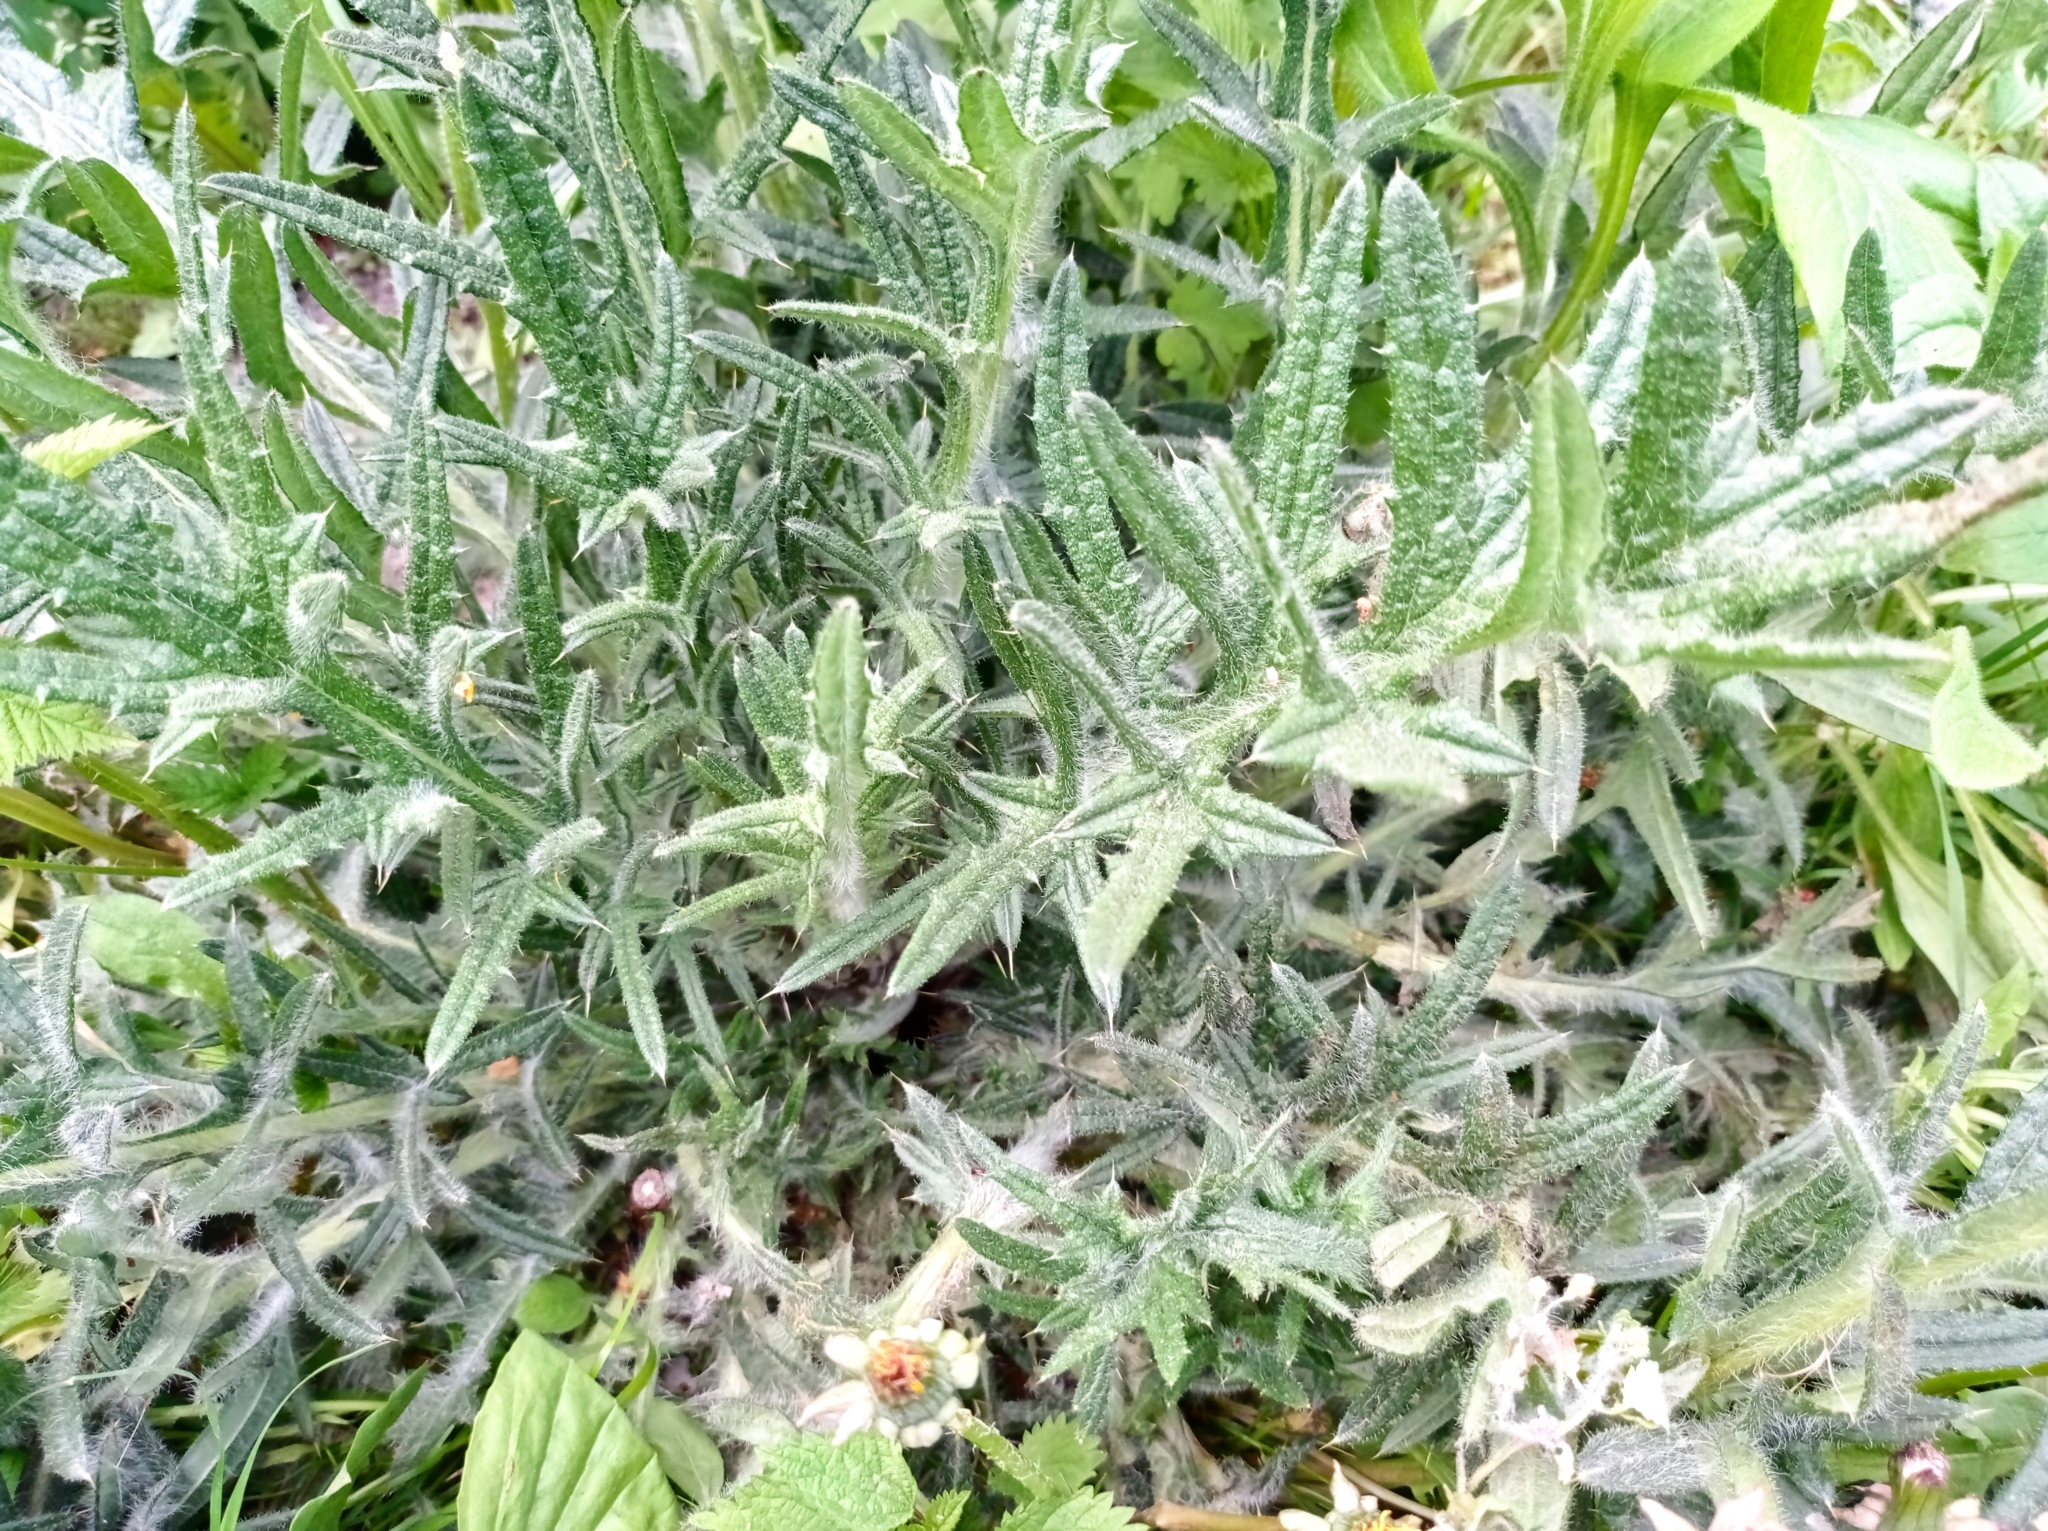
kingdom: Plantae
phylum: Tracheophyta
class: Magnoliopsida
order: Asterales
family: Asteraceae
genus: Cirsium
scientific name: Cirsium vulgare
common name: Bull thistle
